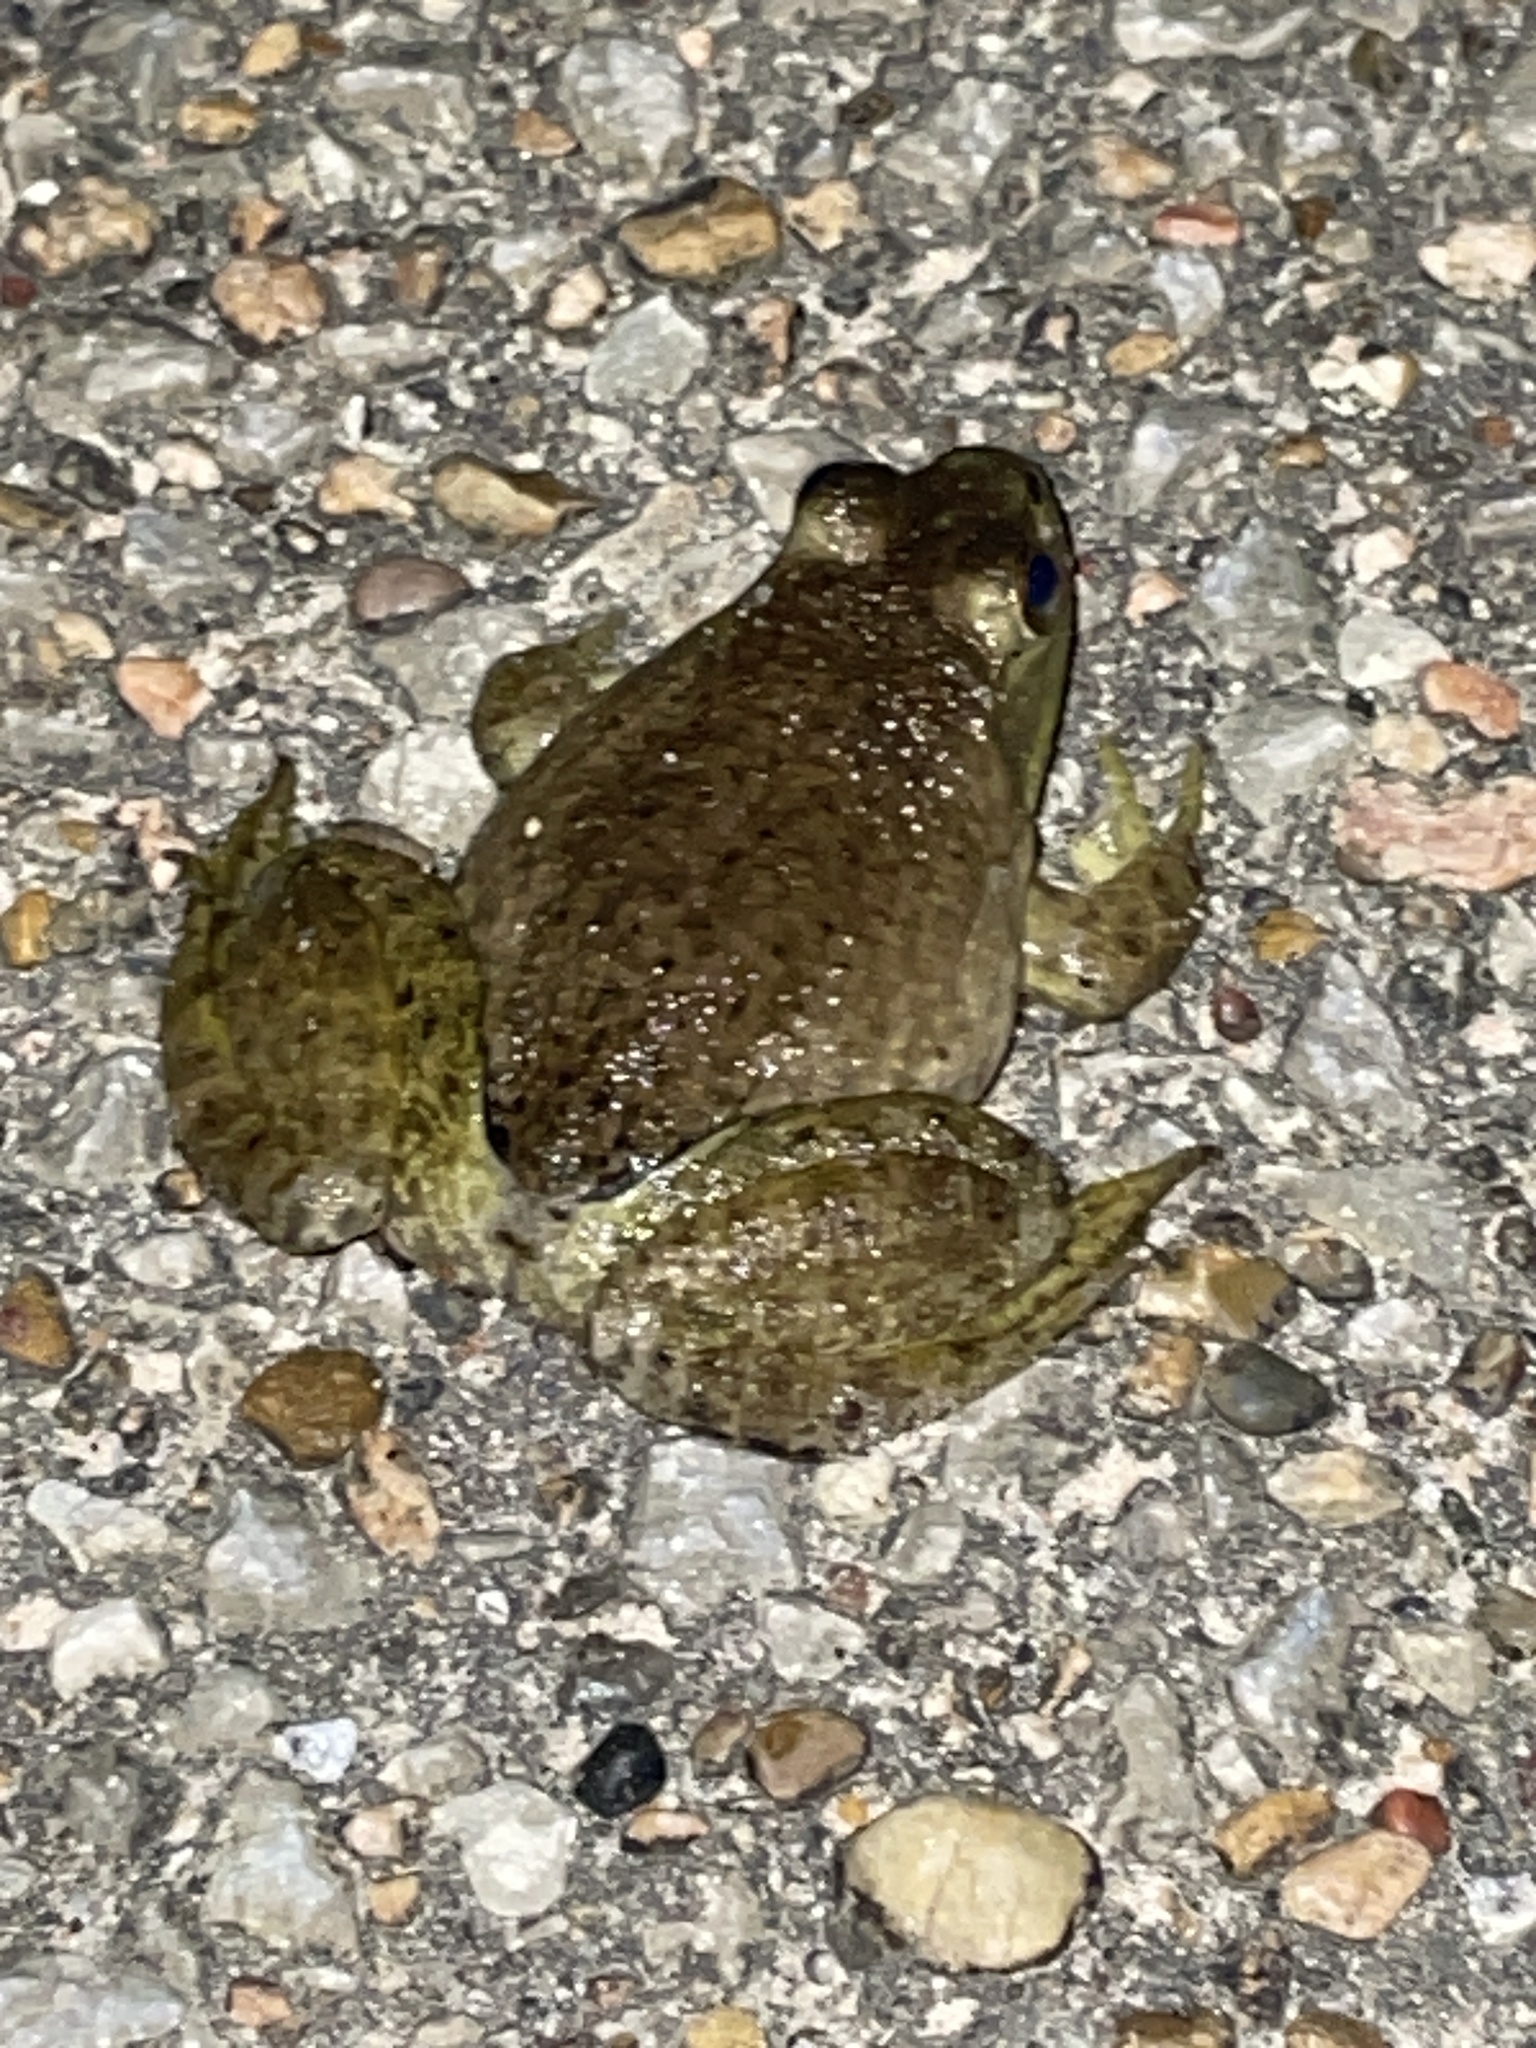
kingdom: Animalia
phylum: Chordata
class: Amphibia
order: Anura
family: Ranidae
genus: Lithobates
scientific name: Lithobates catesbeianus
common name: American bullfrog
